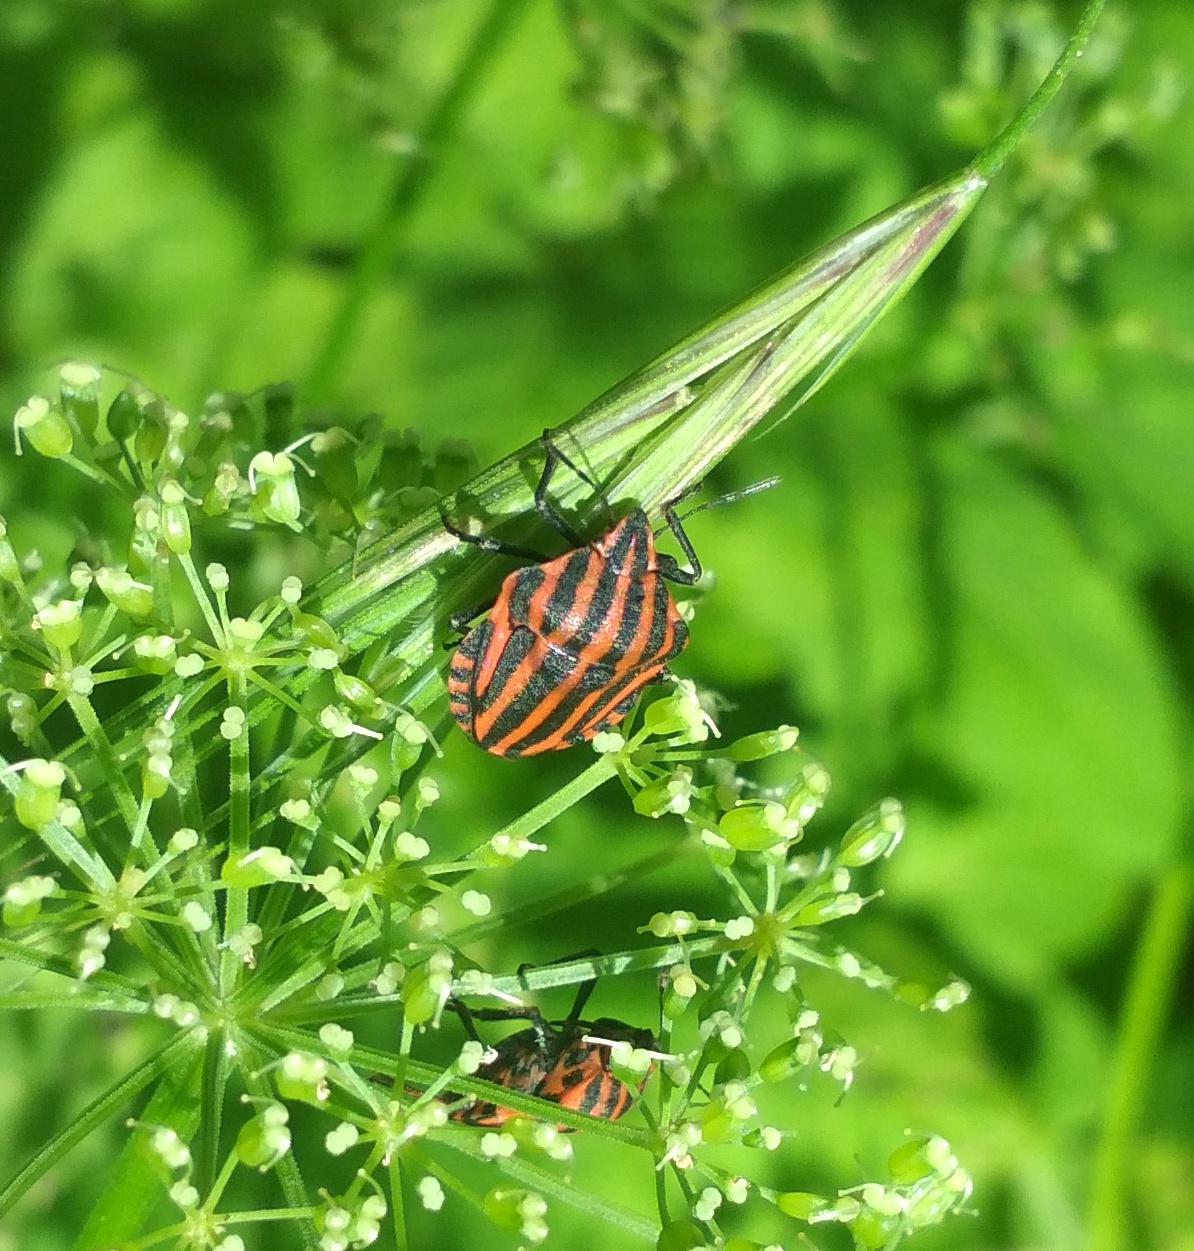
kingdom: Animalia
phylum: Arthropoda
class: Insecta
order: Hemiptera
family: Pentatomidae
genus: Graphosoma
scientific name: Graphosoma italicum
